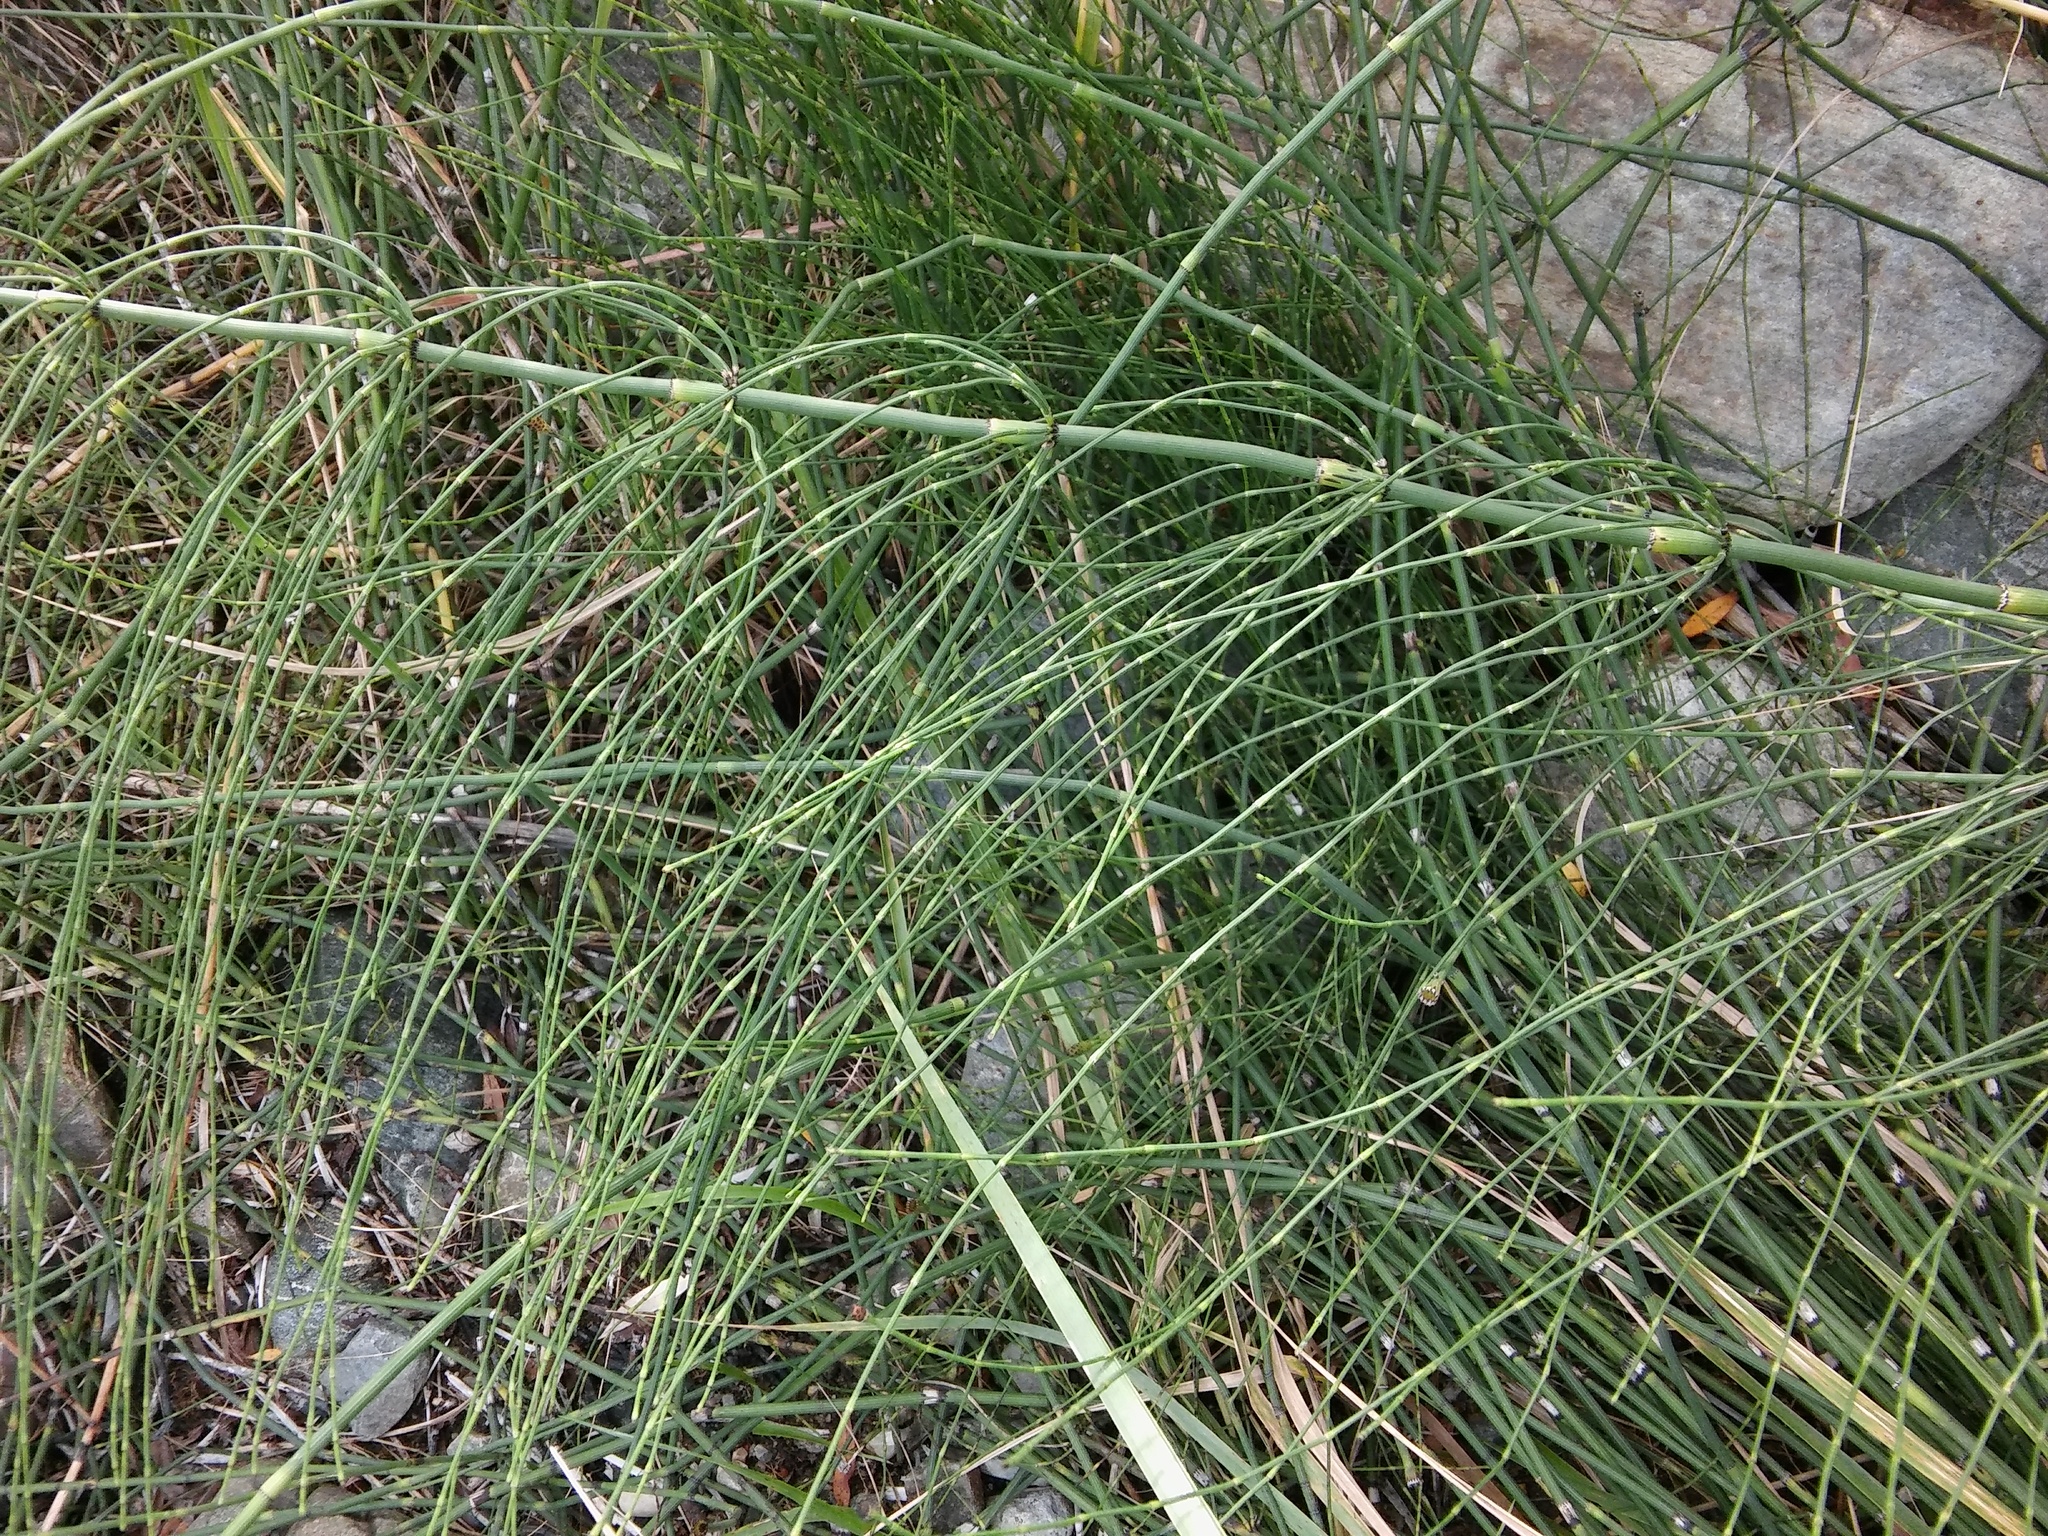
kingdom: Plantae
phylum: Tracheophyta
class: Polypodiopsida
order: Equisetales
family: Equisetaceae
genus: Equisetum
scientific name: Equisetum ramosissimum
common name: Branched horsetail
